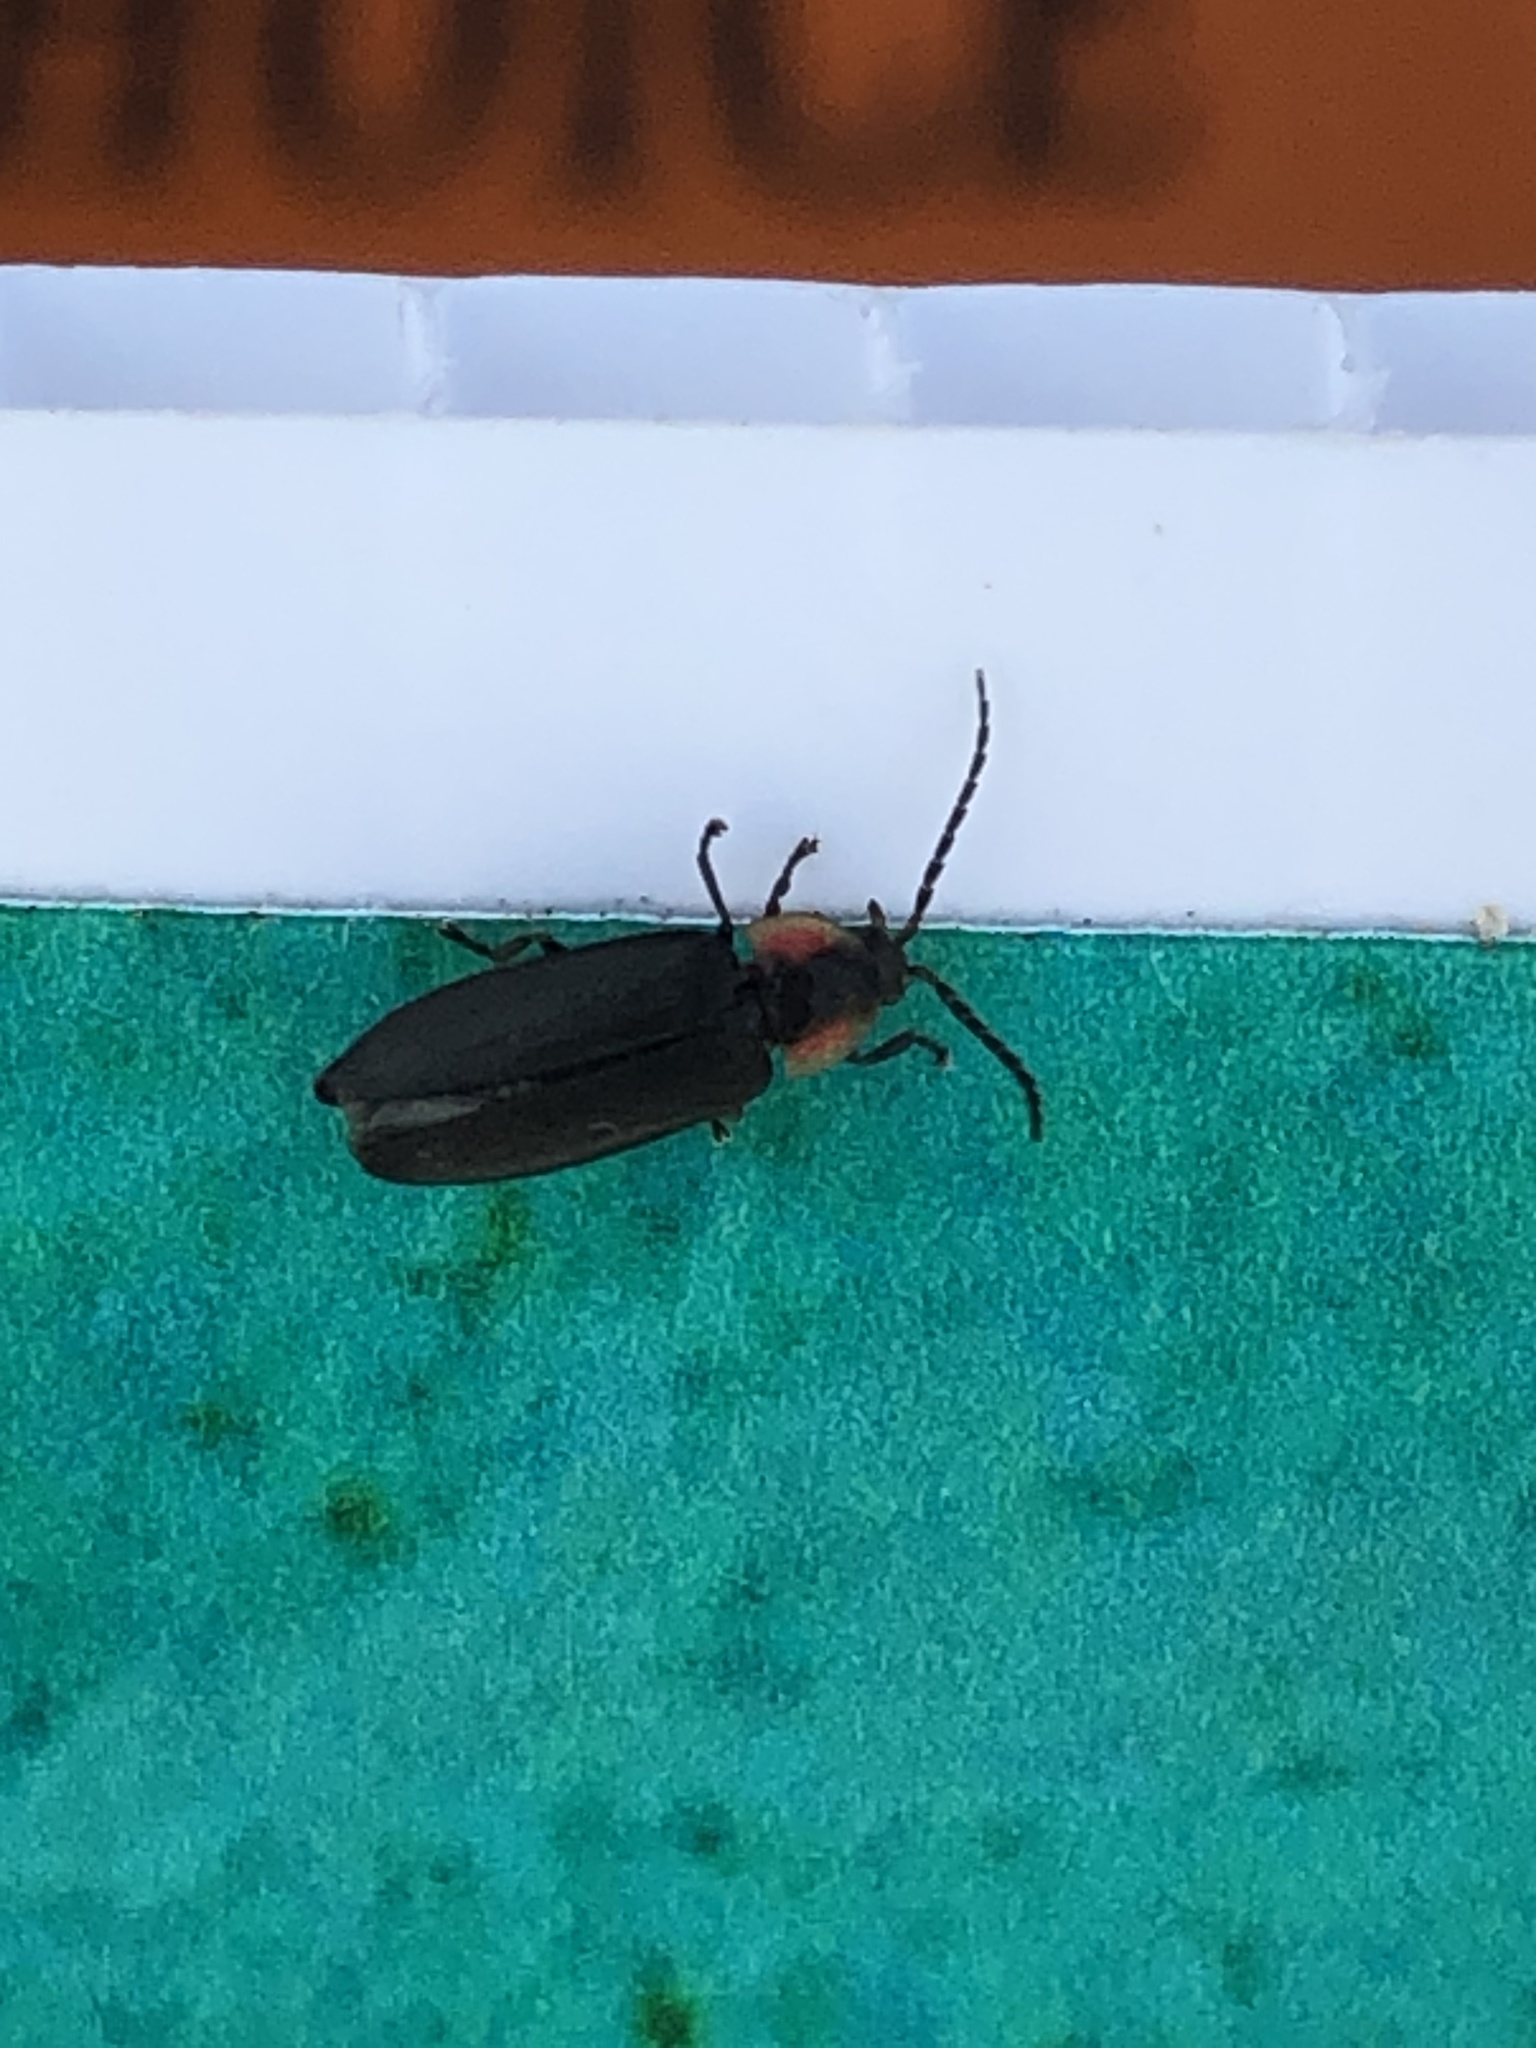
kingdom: Animalia
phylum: Arthropoda
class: Insecta
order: Coleoptera
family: Lampyridae
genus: Lucidota
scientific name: Lucidota atra
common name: Black firefly
